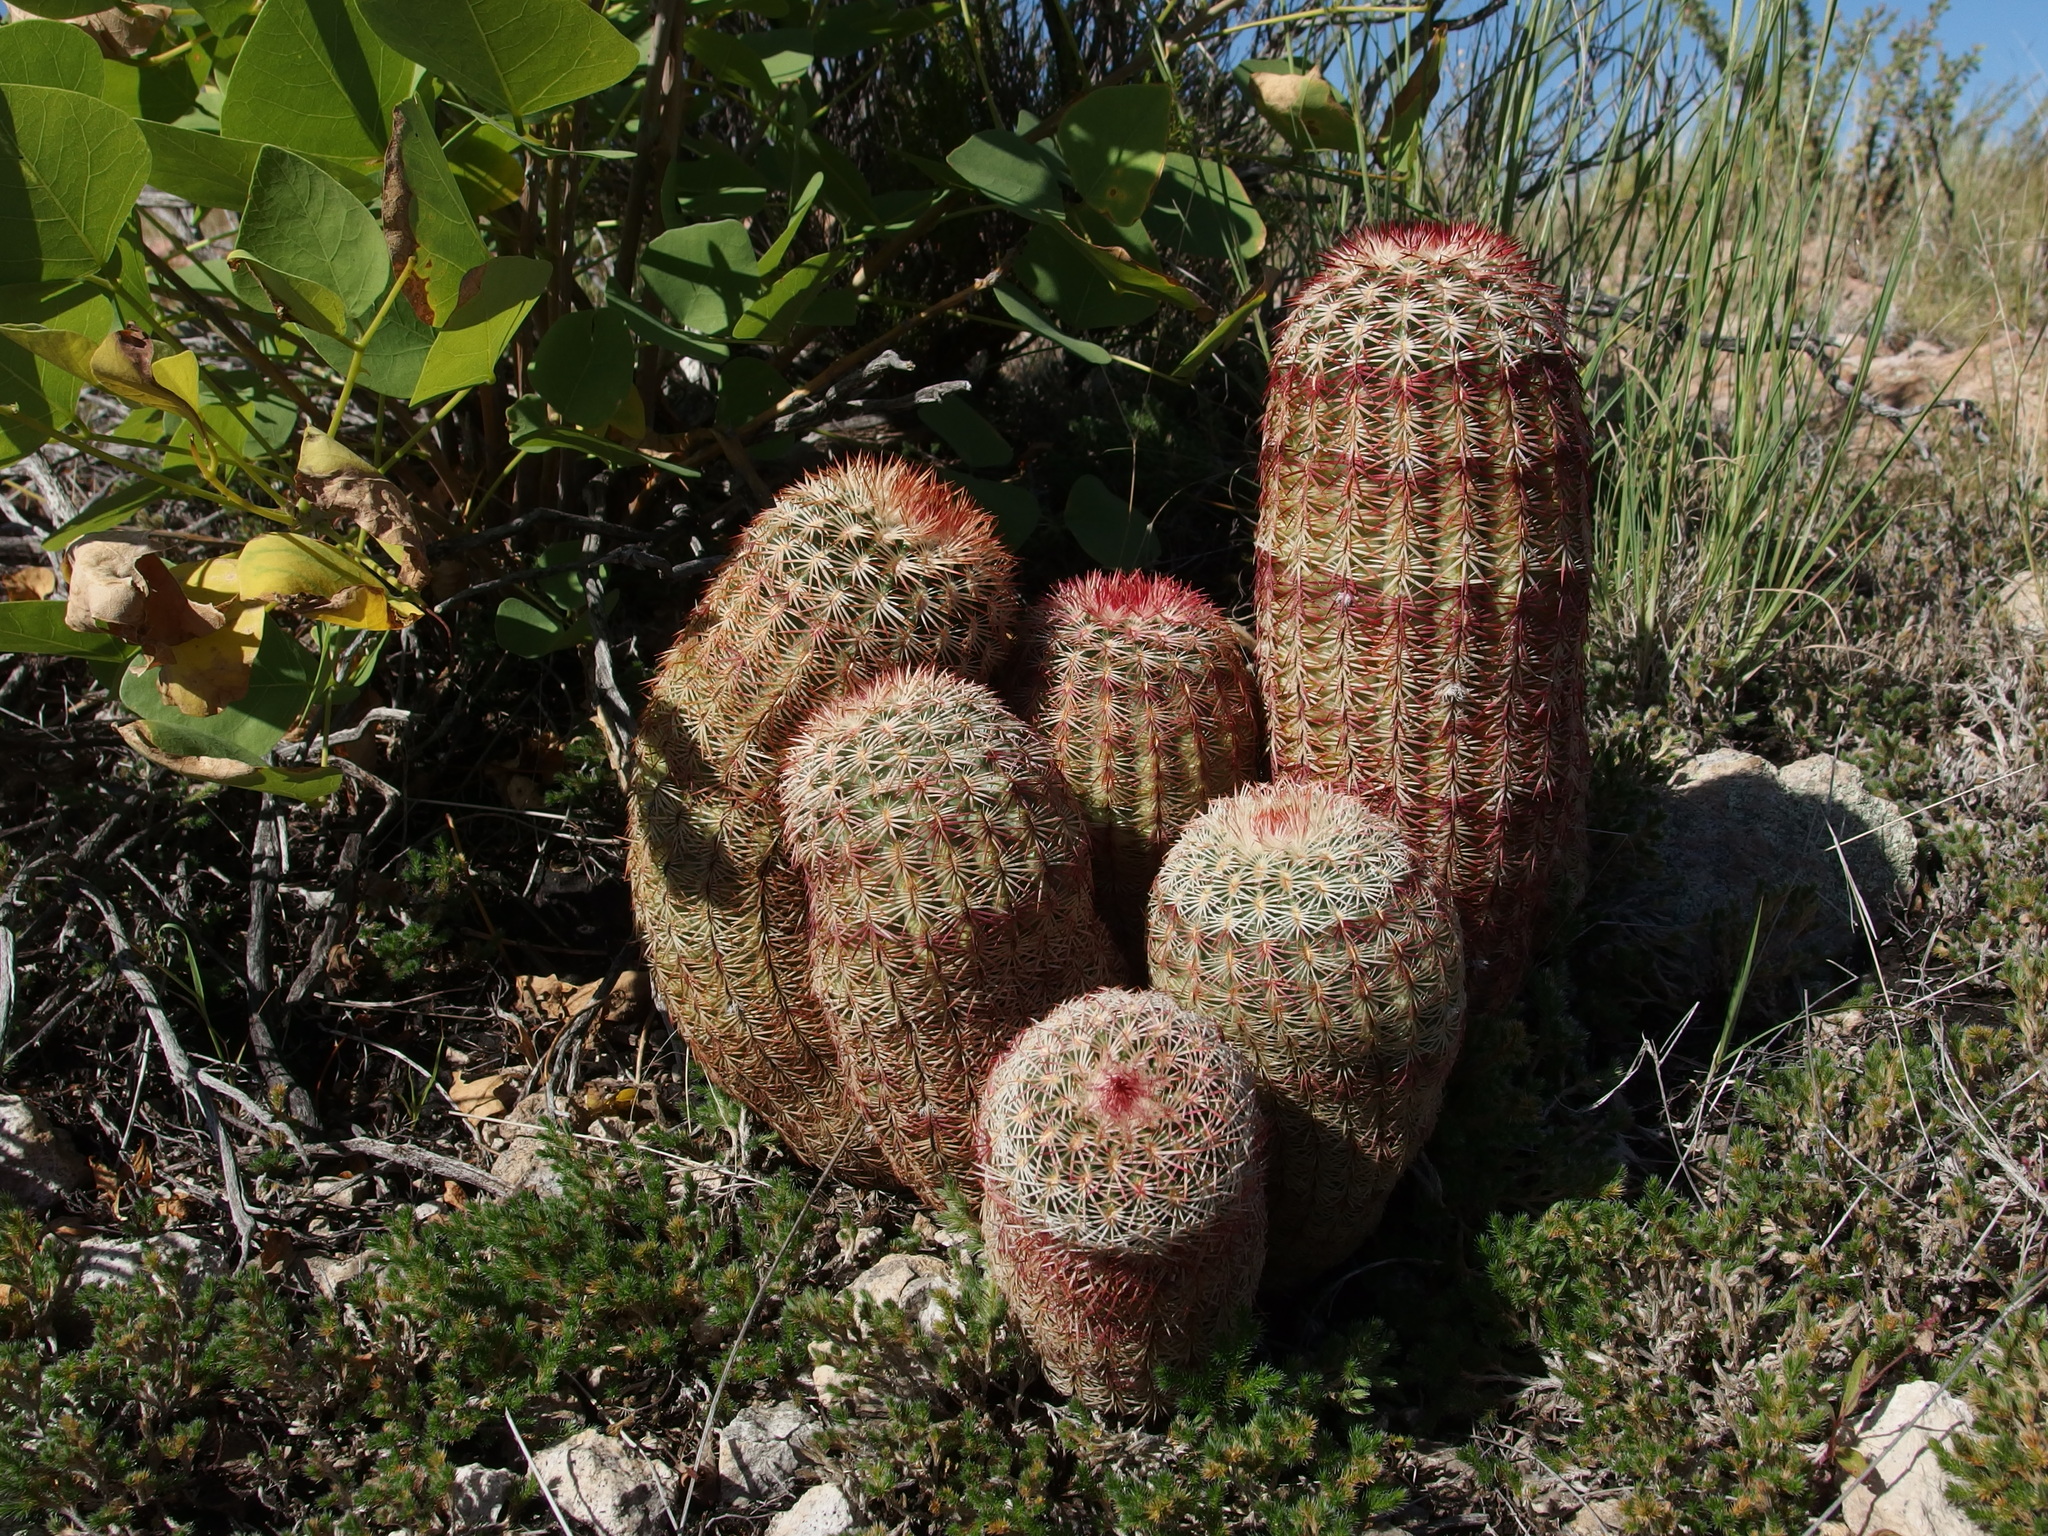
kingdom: Plantae
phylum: Tracheophyta
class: Magnoliopsida
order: Caryophyllales
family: Cactaceae
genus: Echinocereus
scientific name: Echinocereus rigidissimus
